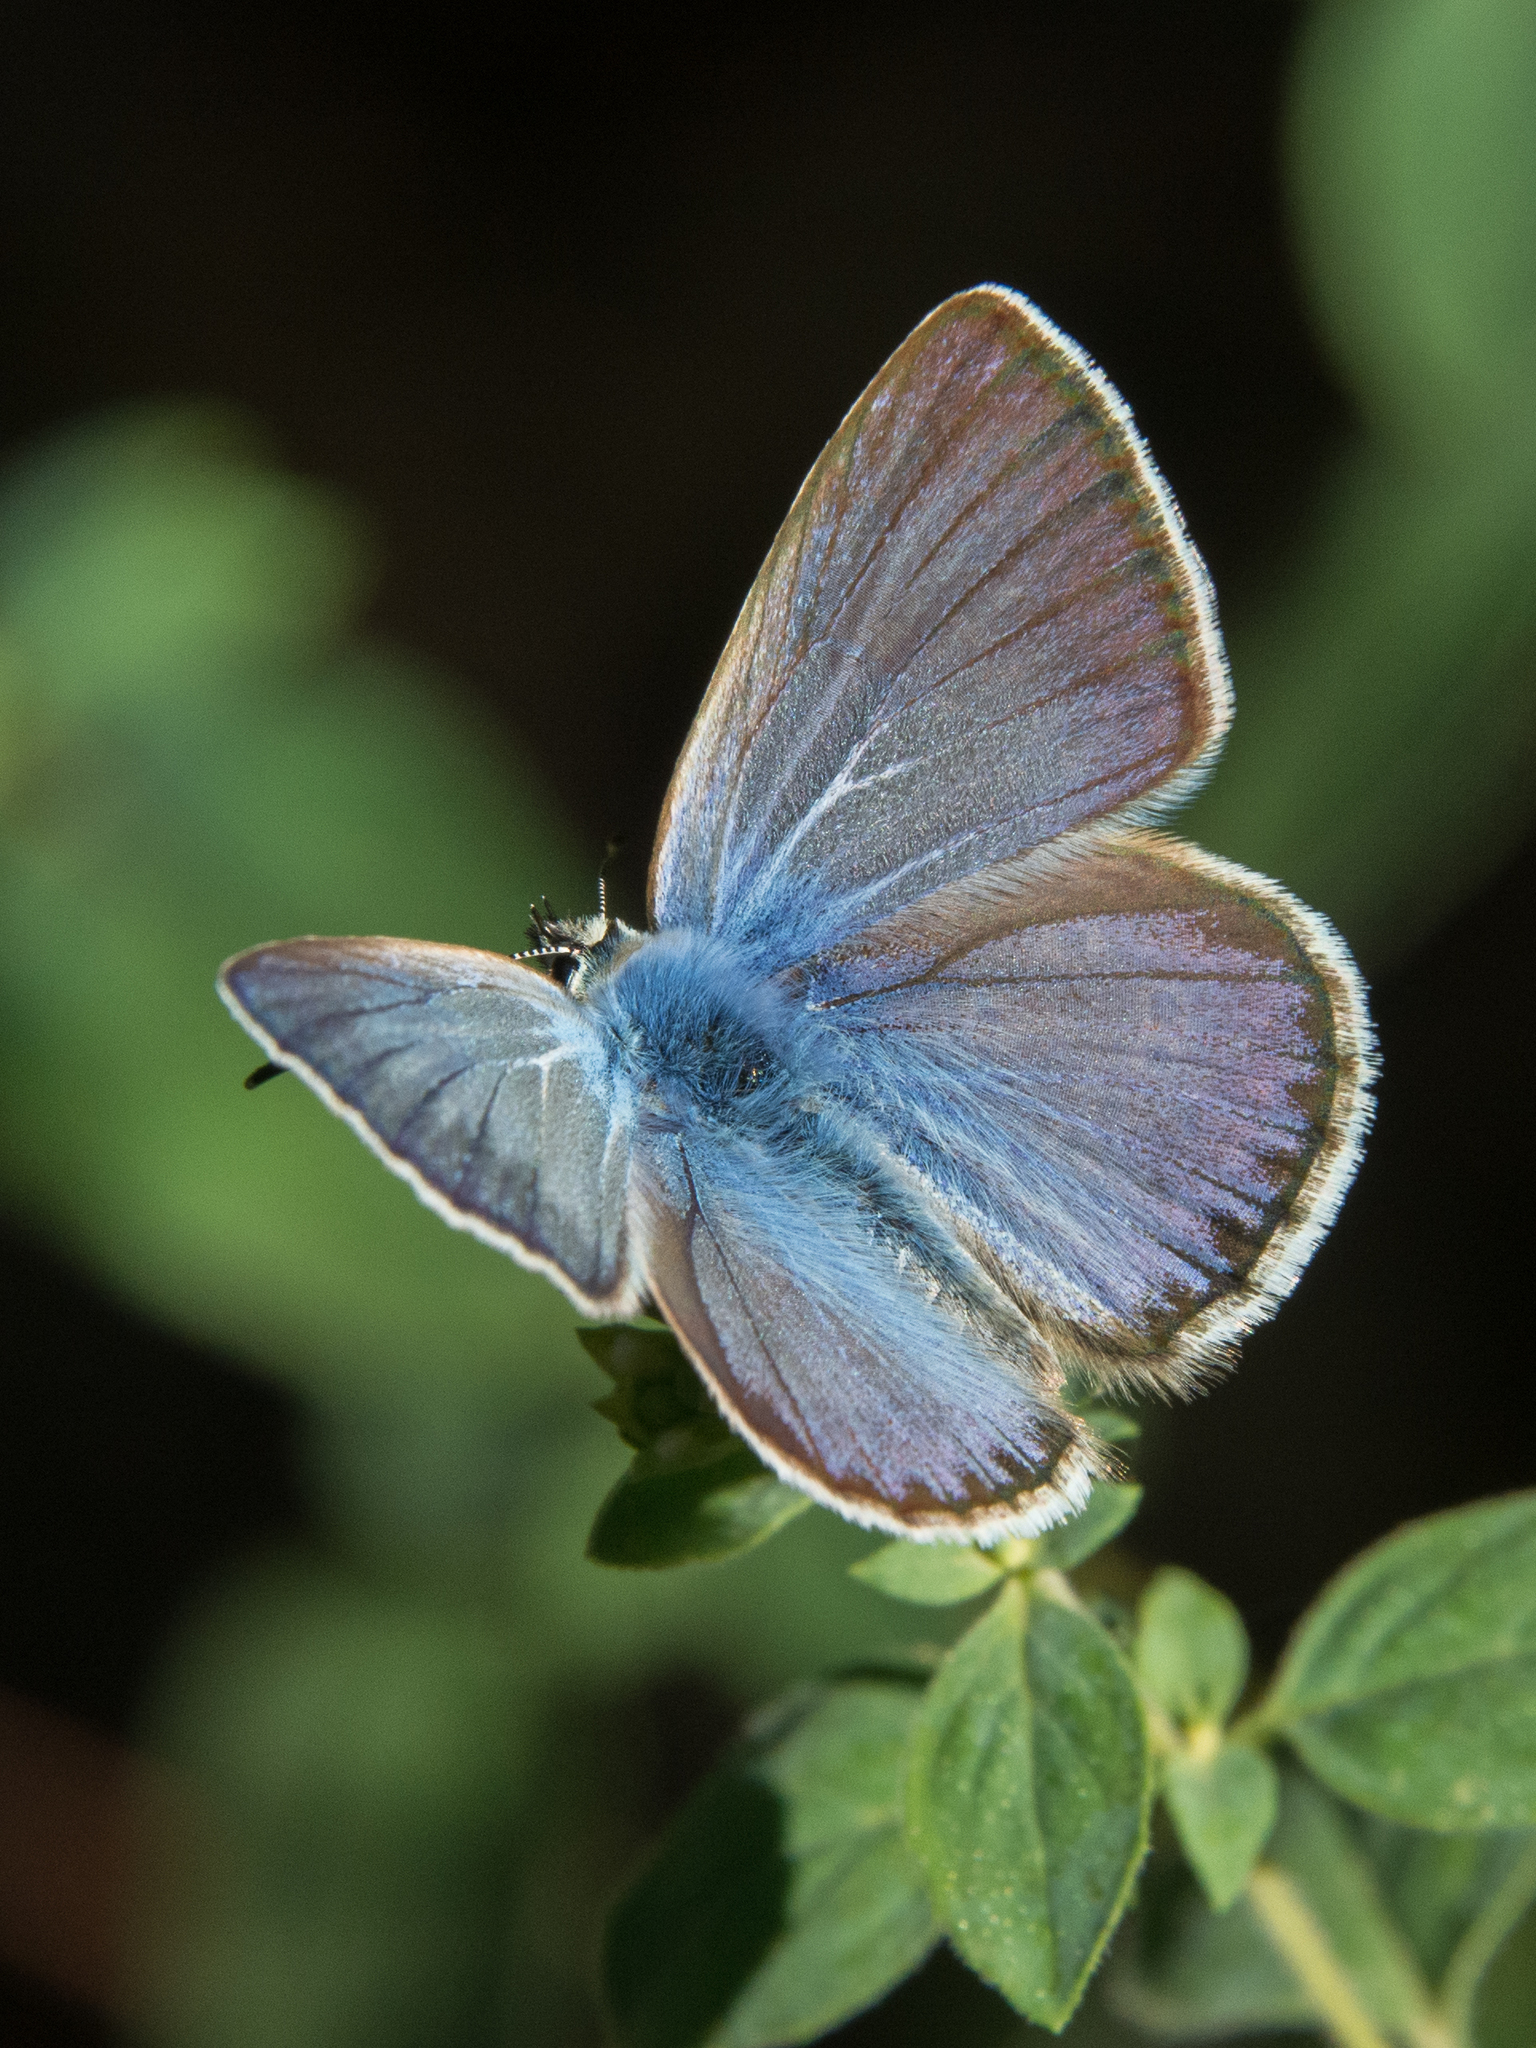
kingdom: Animalia
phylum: Arthropoda
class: Insecta
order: Lepidoptera
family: Lycaenidae
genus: Polyommatus
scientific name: Polyommatus celina
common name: Austaut's blue
